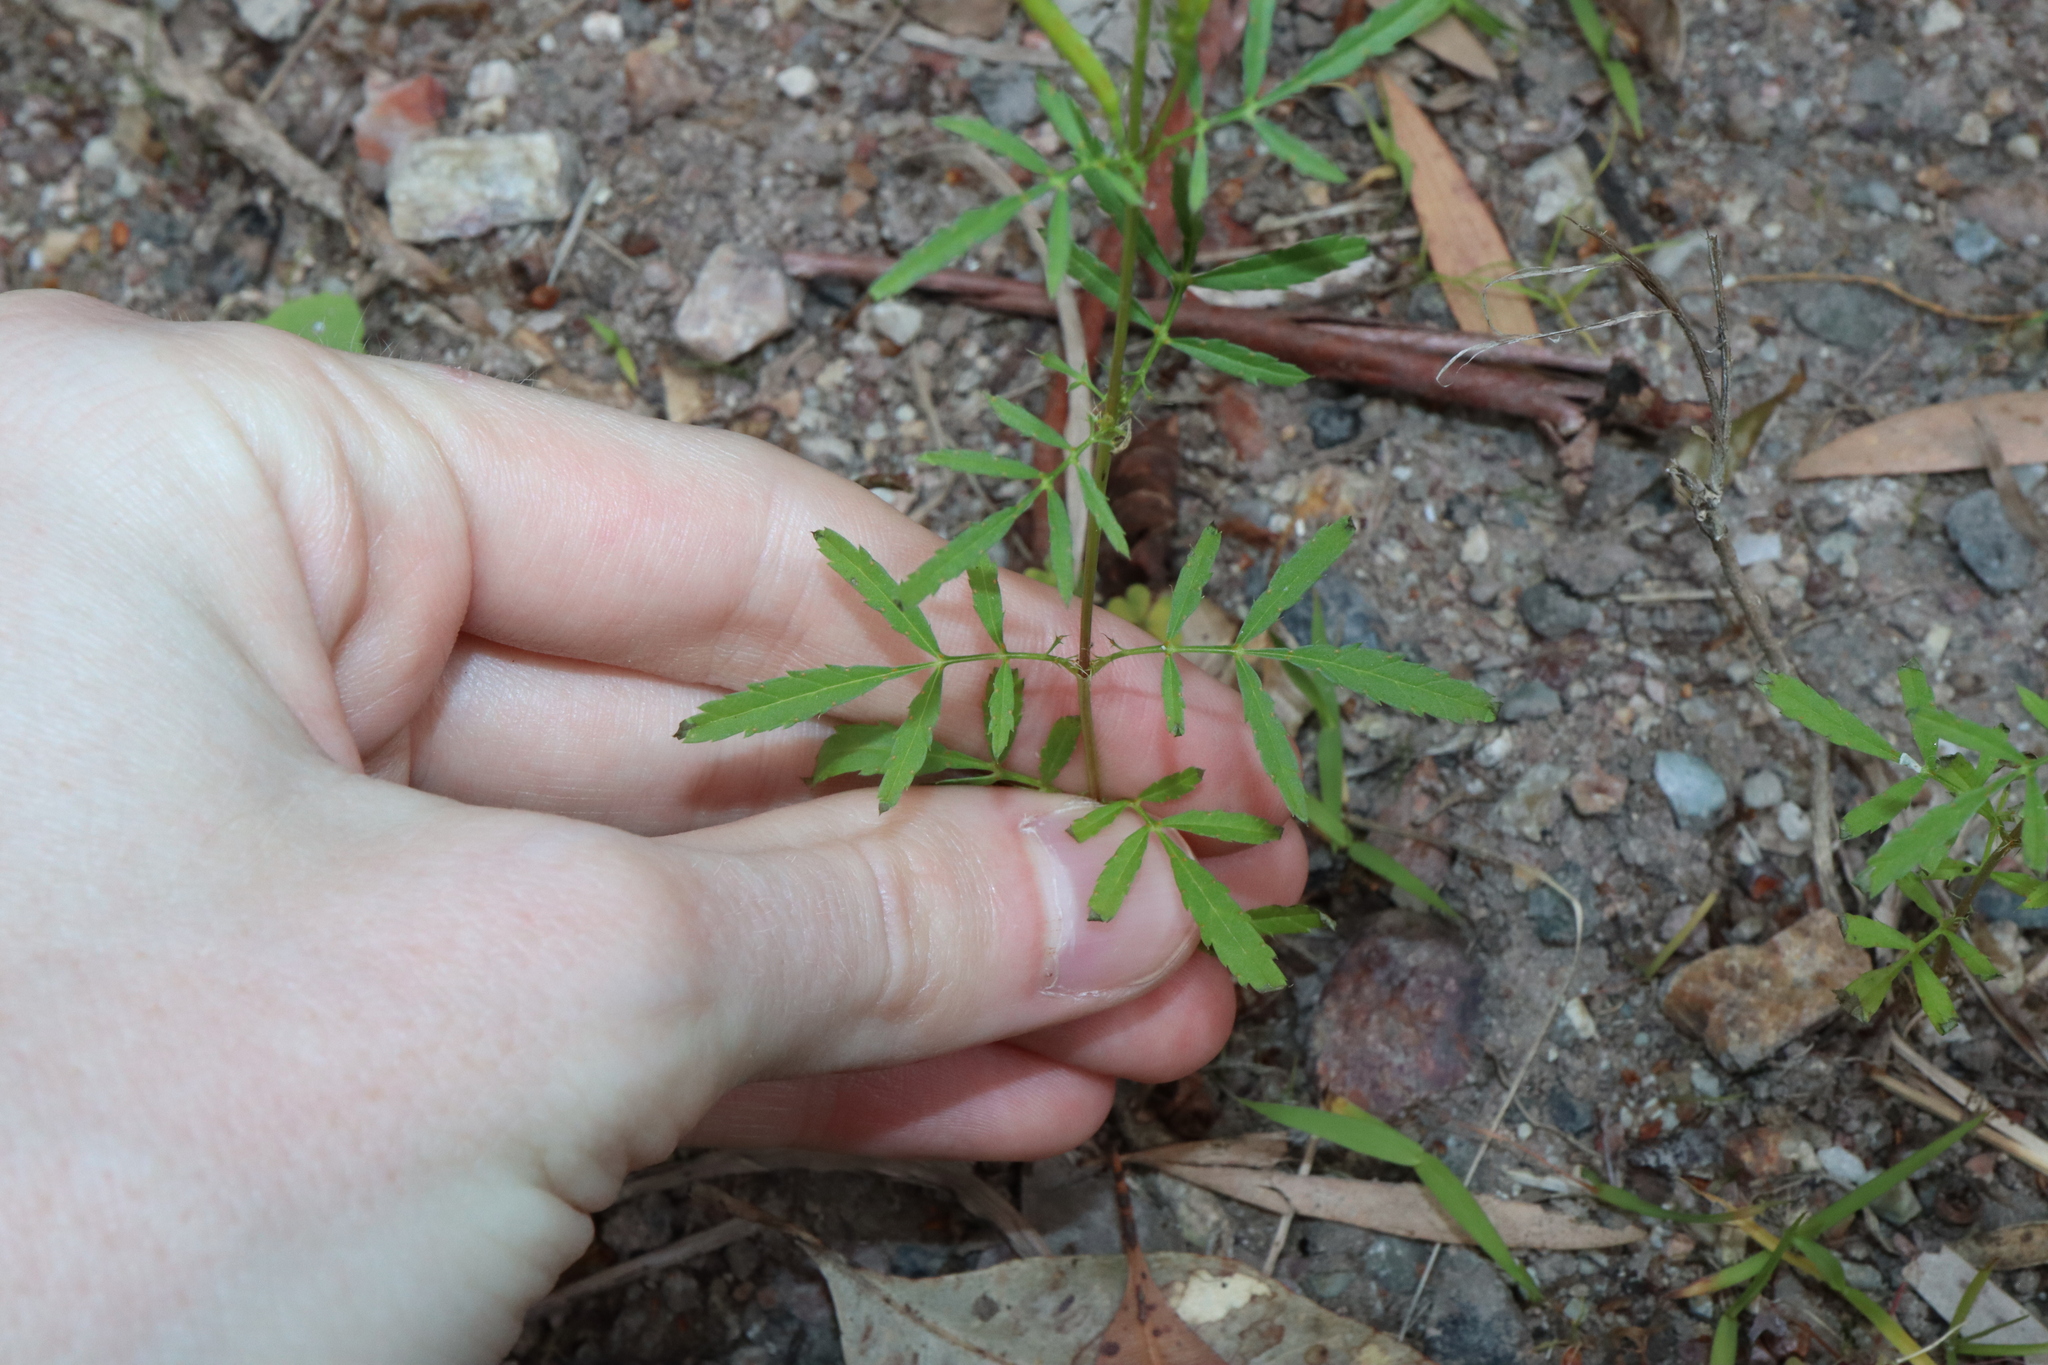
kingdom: Plantae
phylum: Tracheophyta
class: Magnoliopsida
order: Asterales
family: Asteraceae
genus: Tagetes
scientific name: Tagetes minuta
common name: Muster john henry
